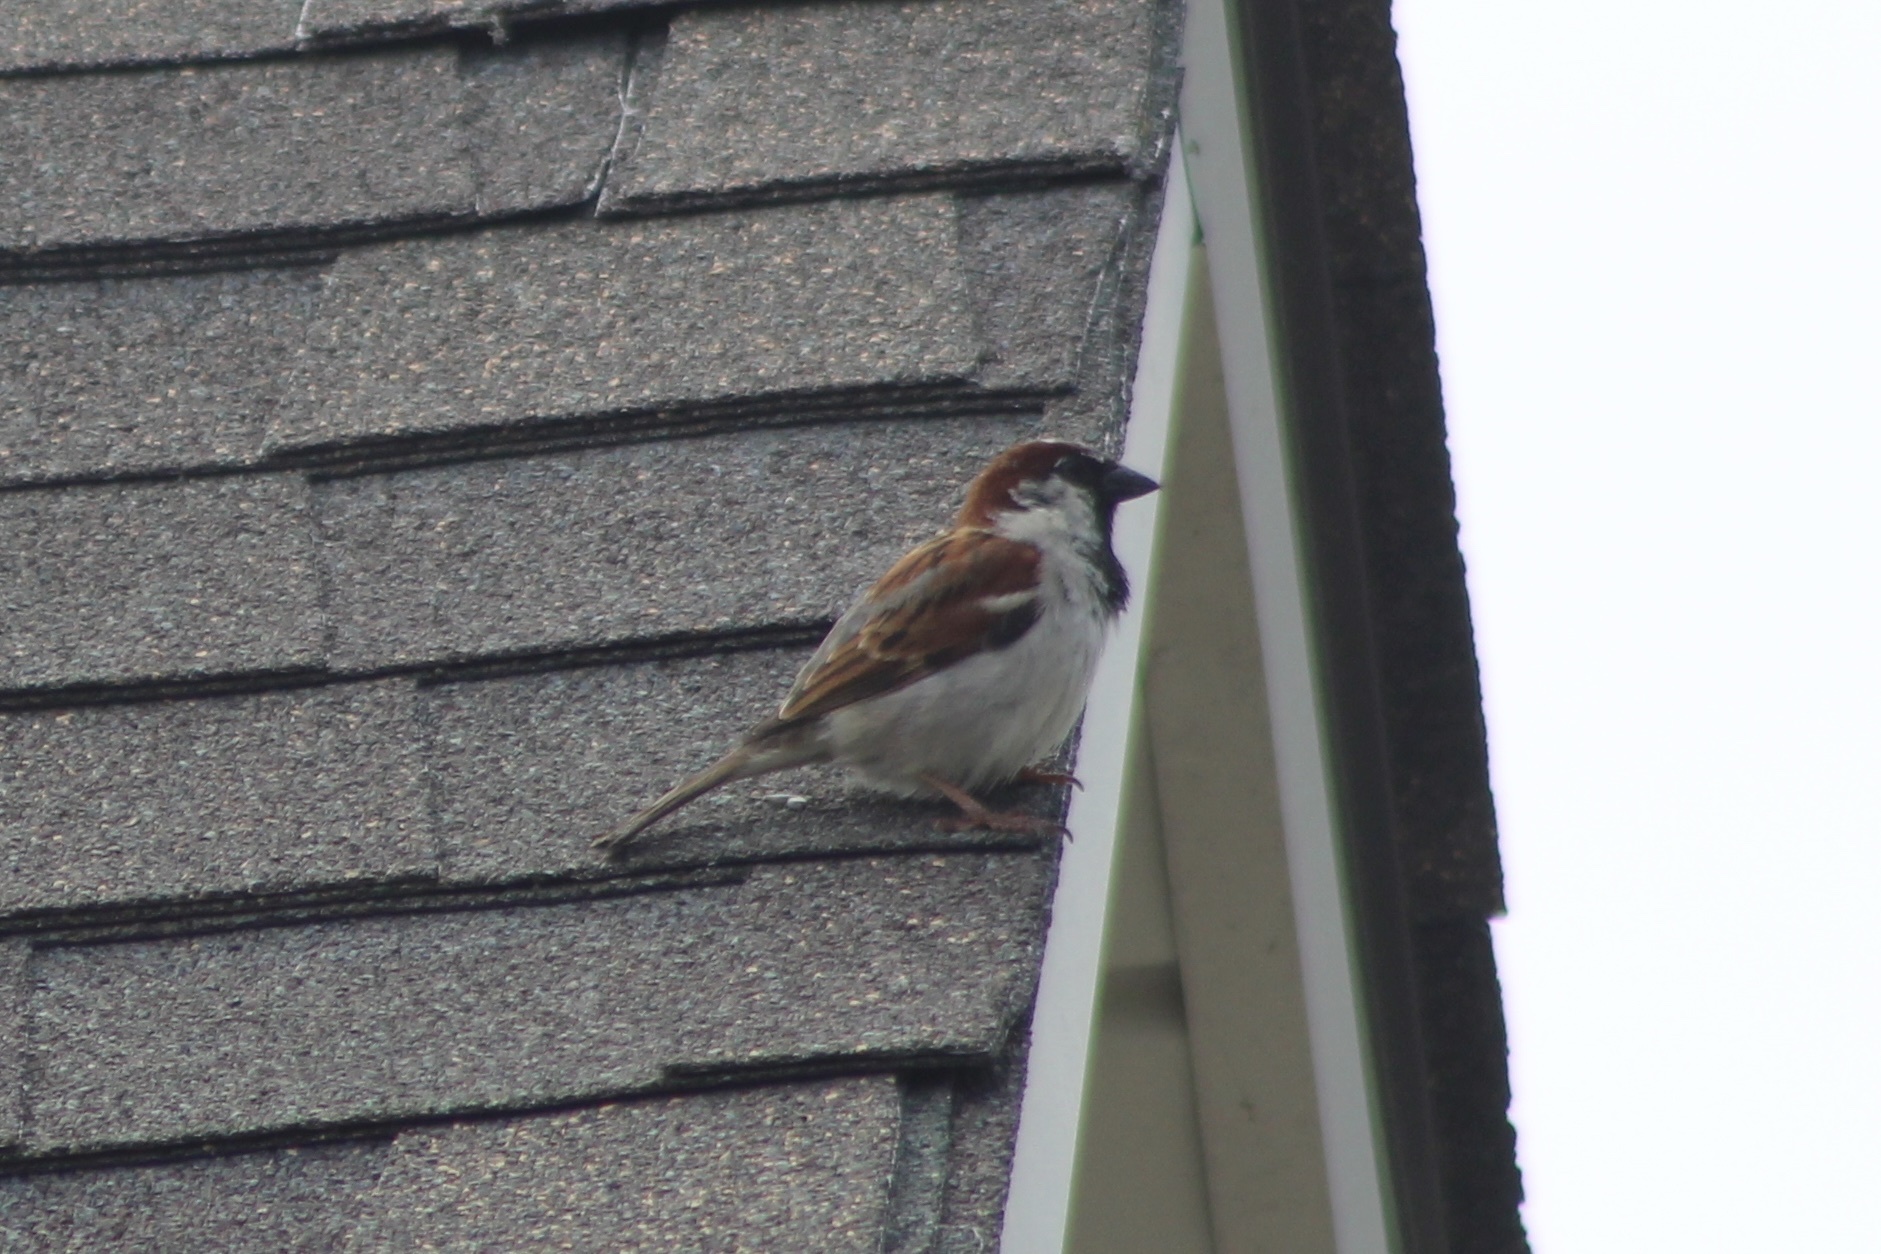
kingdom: Animalia
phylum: Chordata
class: Aves
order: Passeriformes
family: Passeridae
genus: Passer
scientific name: Passer domesticus
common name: House sparrow
